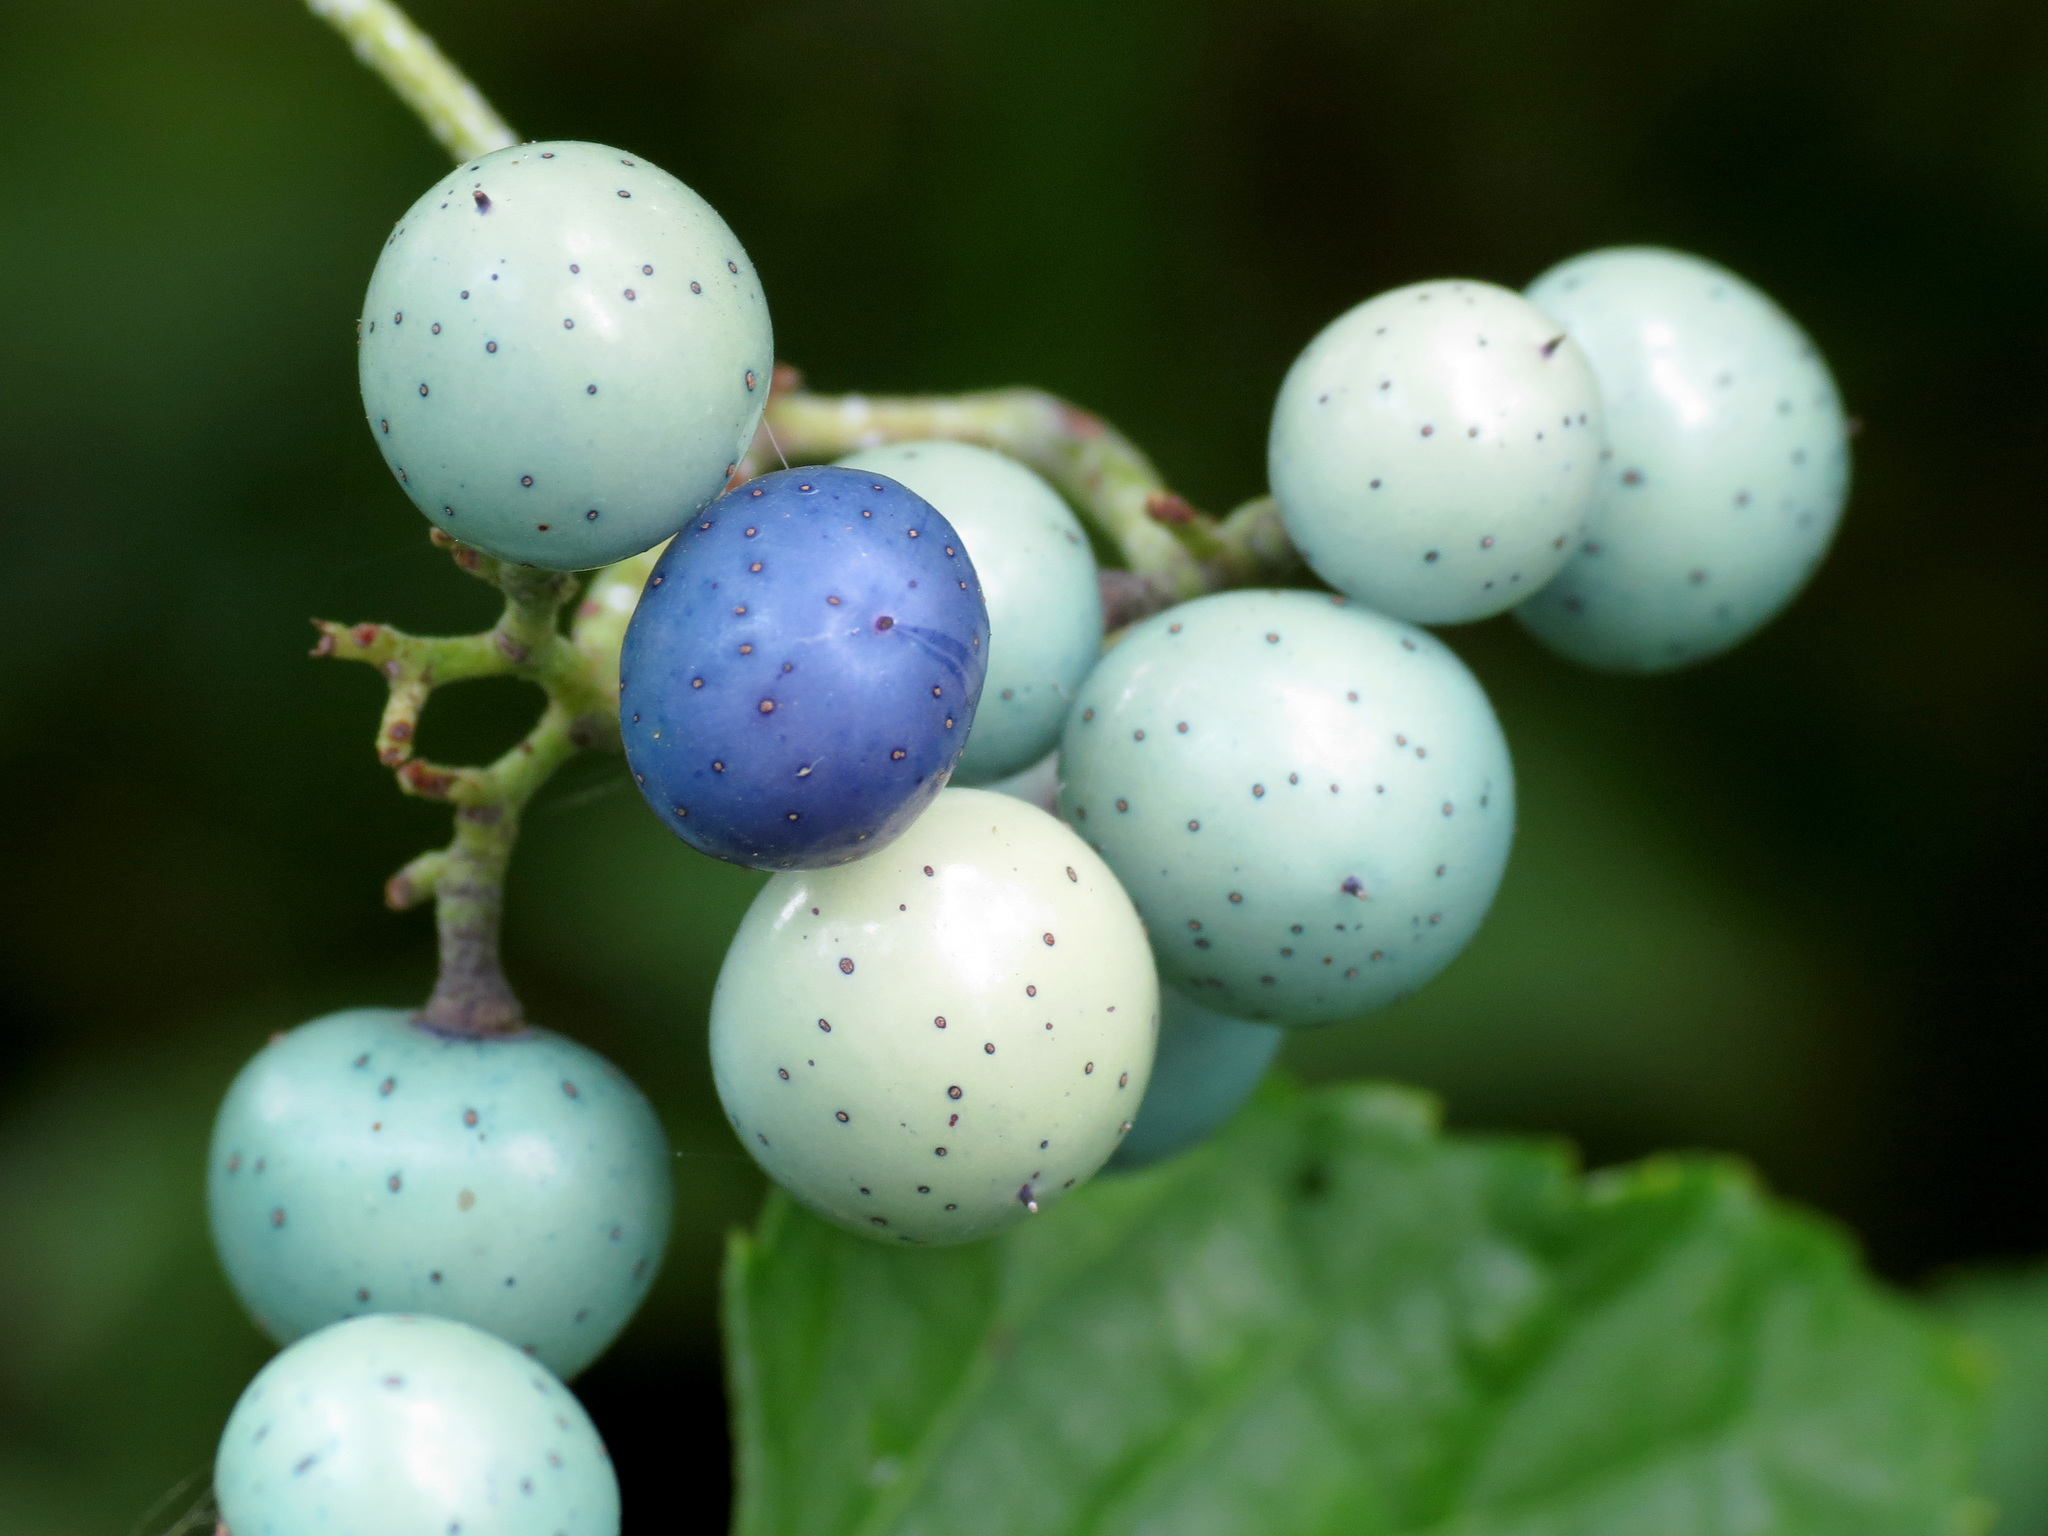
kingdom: Plantae
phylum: Tracheophyta
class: Magnoliopsida
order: Vitales
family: Vitaceae
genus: Ampelopsis
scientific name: Ampelopsis glandulosa
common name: Amur peppervine
